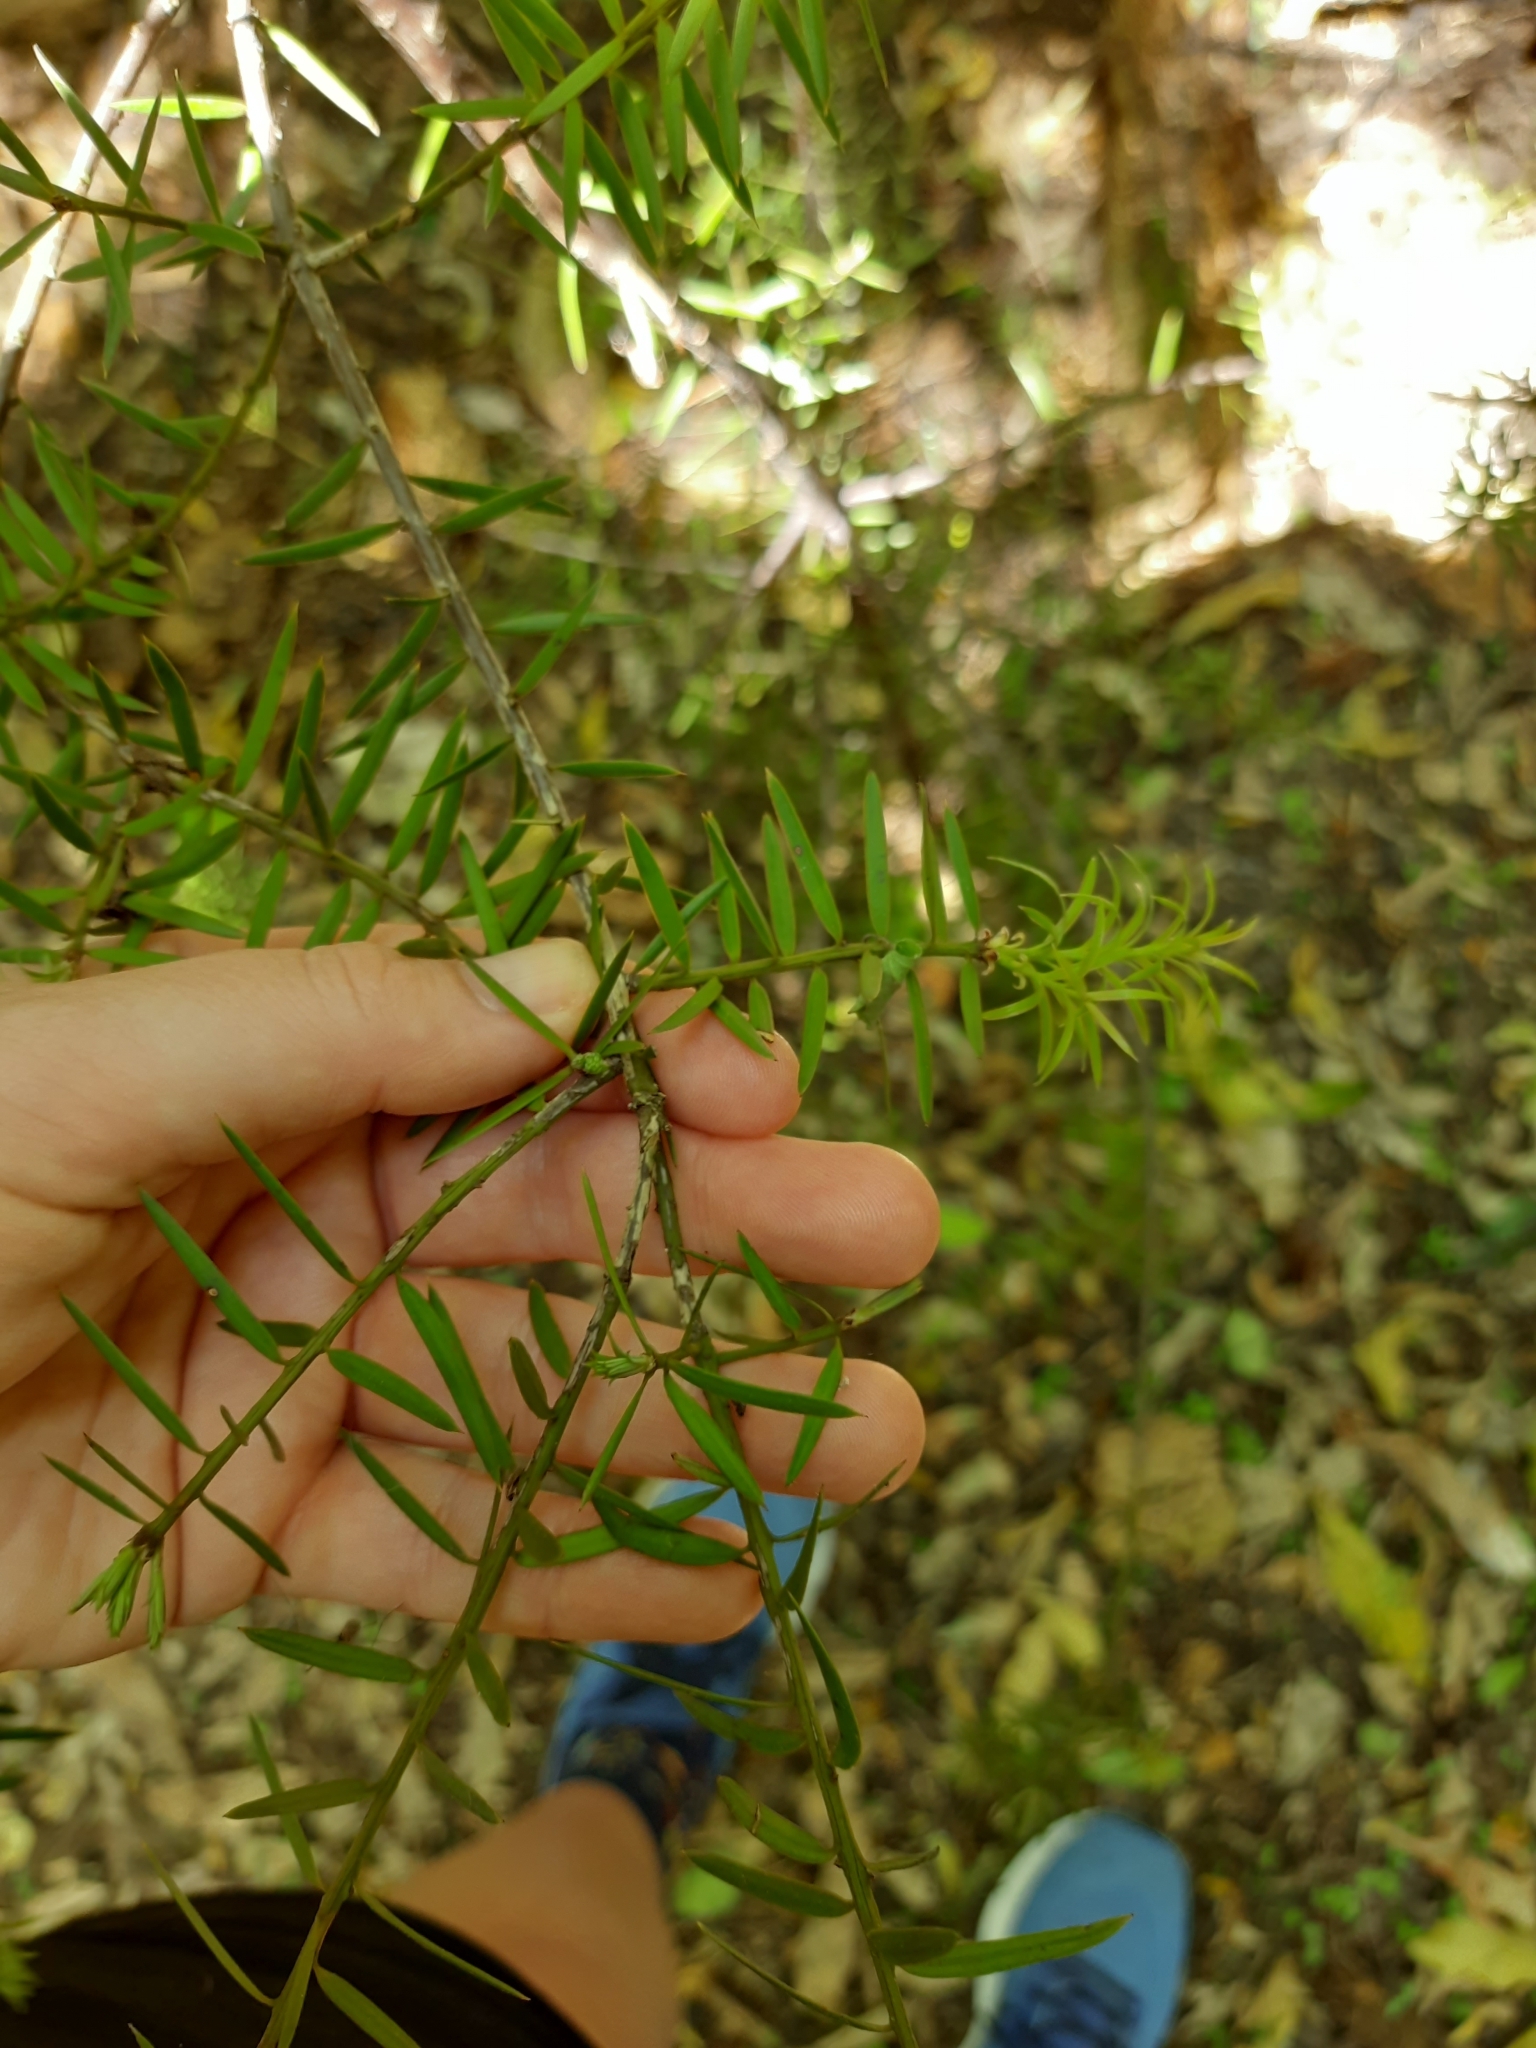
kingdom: Plantae
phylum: Tracheophyta
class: Pinopsida
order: Pinales
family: Podocarpaceae
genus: Podocarpus
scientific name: Podocarpus totara
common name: Totara
